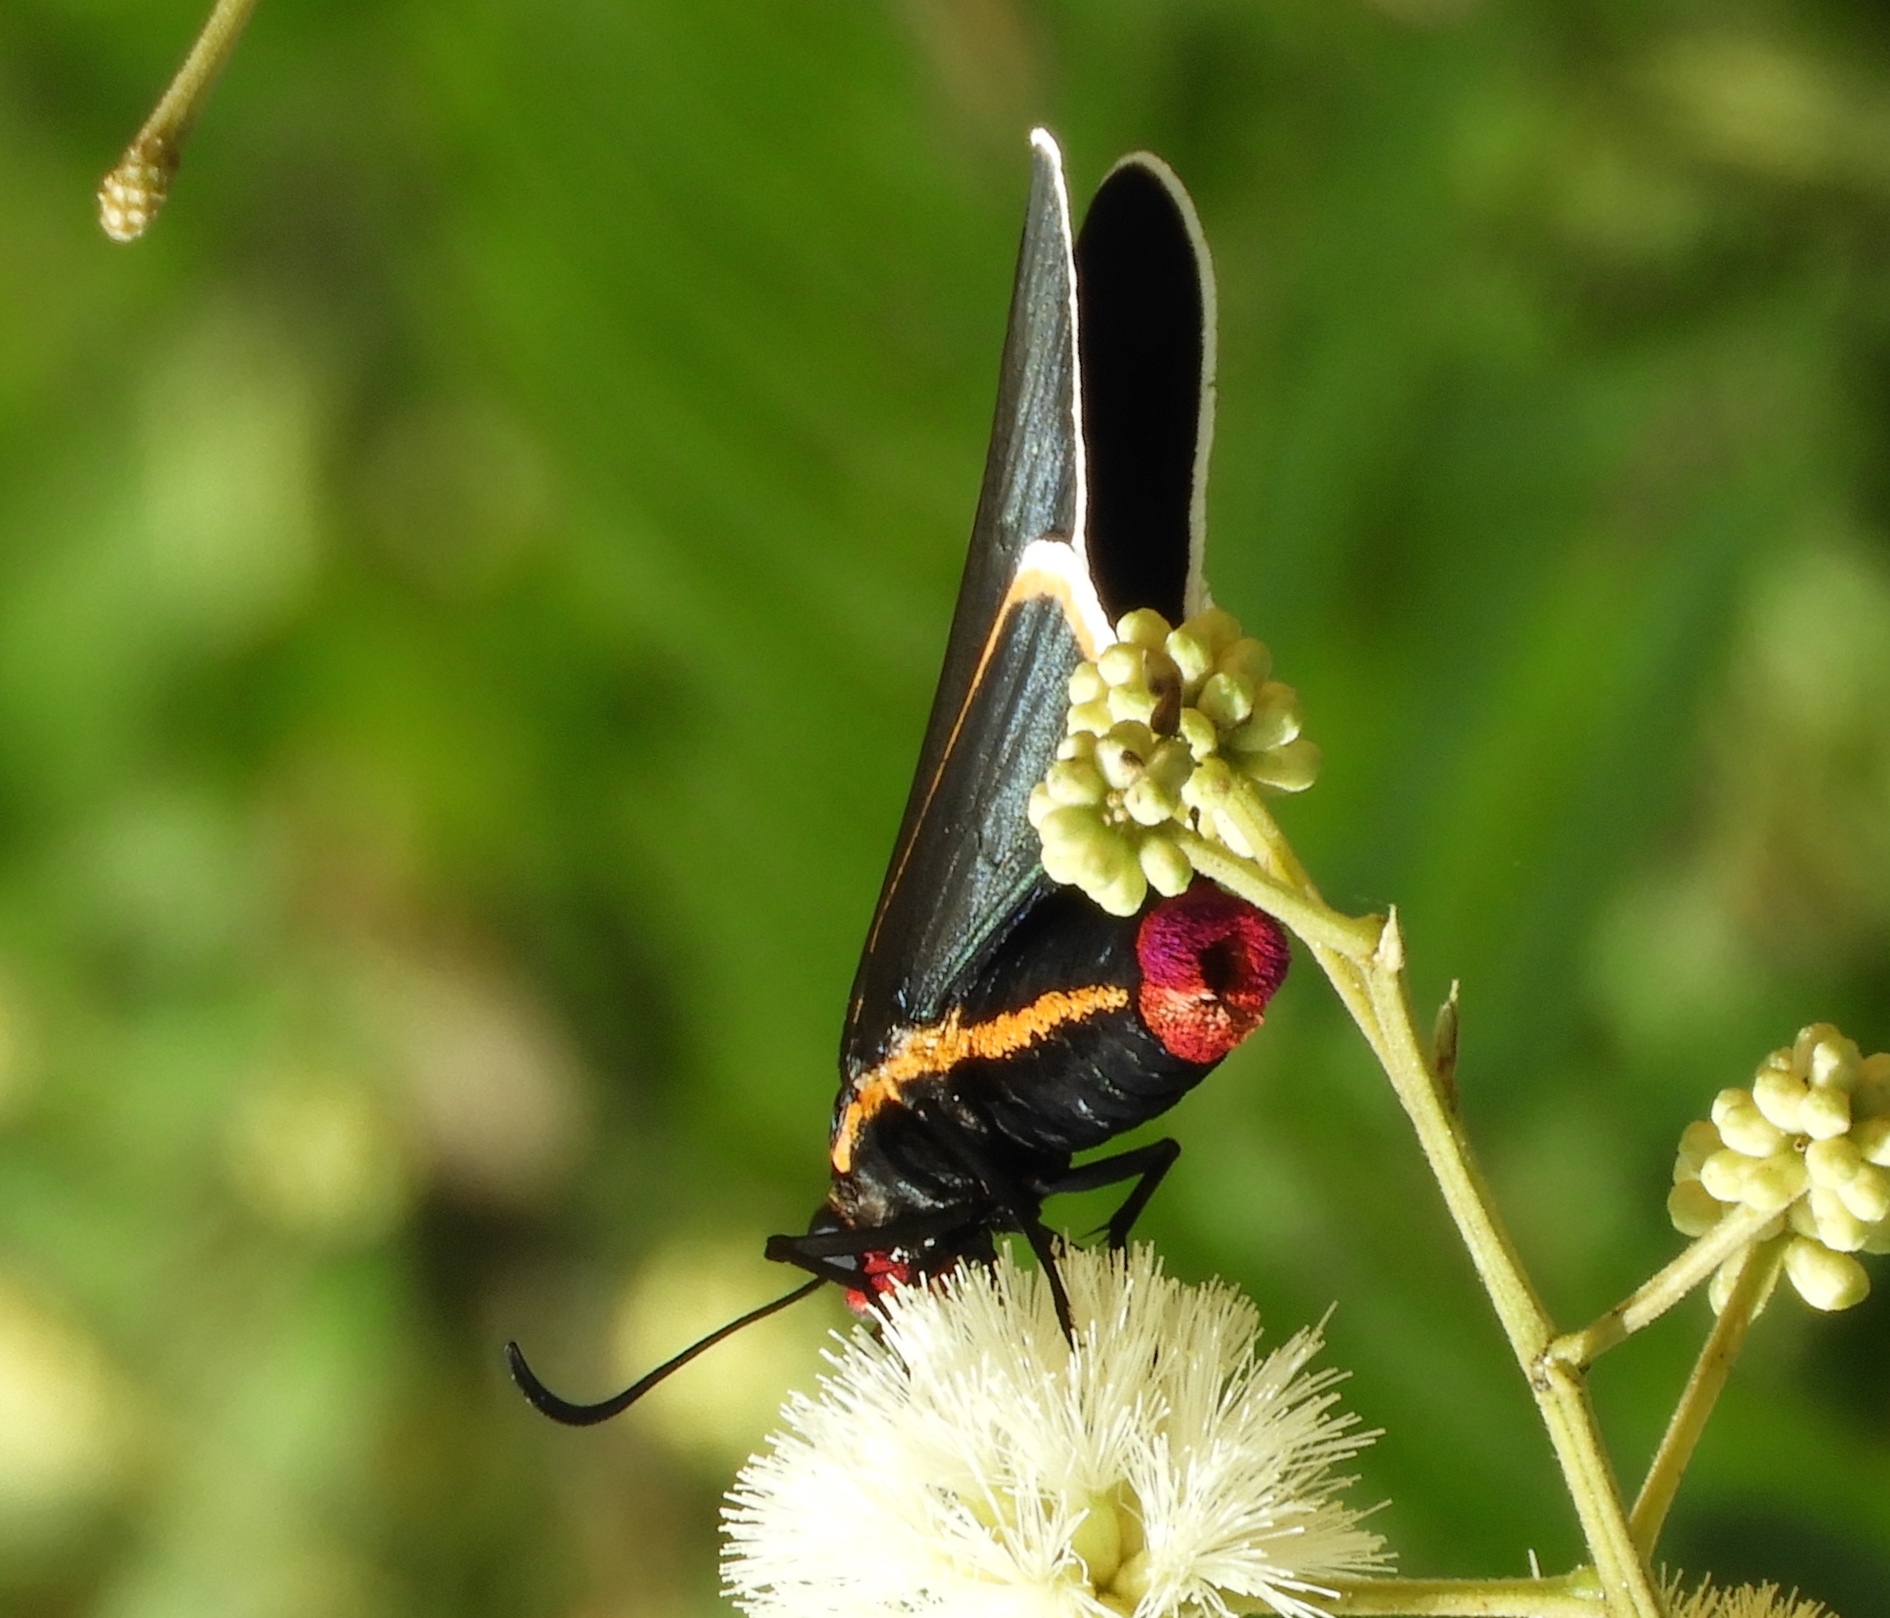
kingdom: Animalia
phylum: Arthropoda
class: Insecta
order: Lepidoptera
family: Hesperiidae
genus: Mysoria
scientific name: Mysoria affinis
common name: Red-collared firetip
